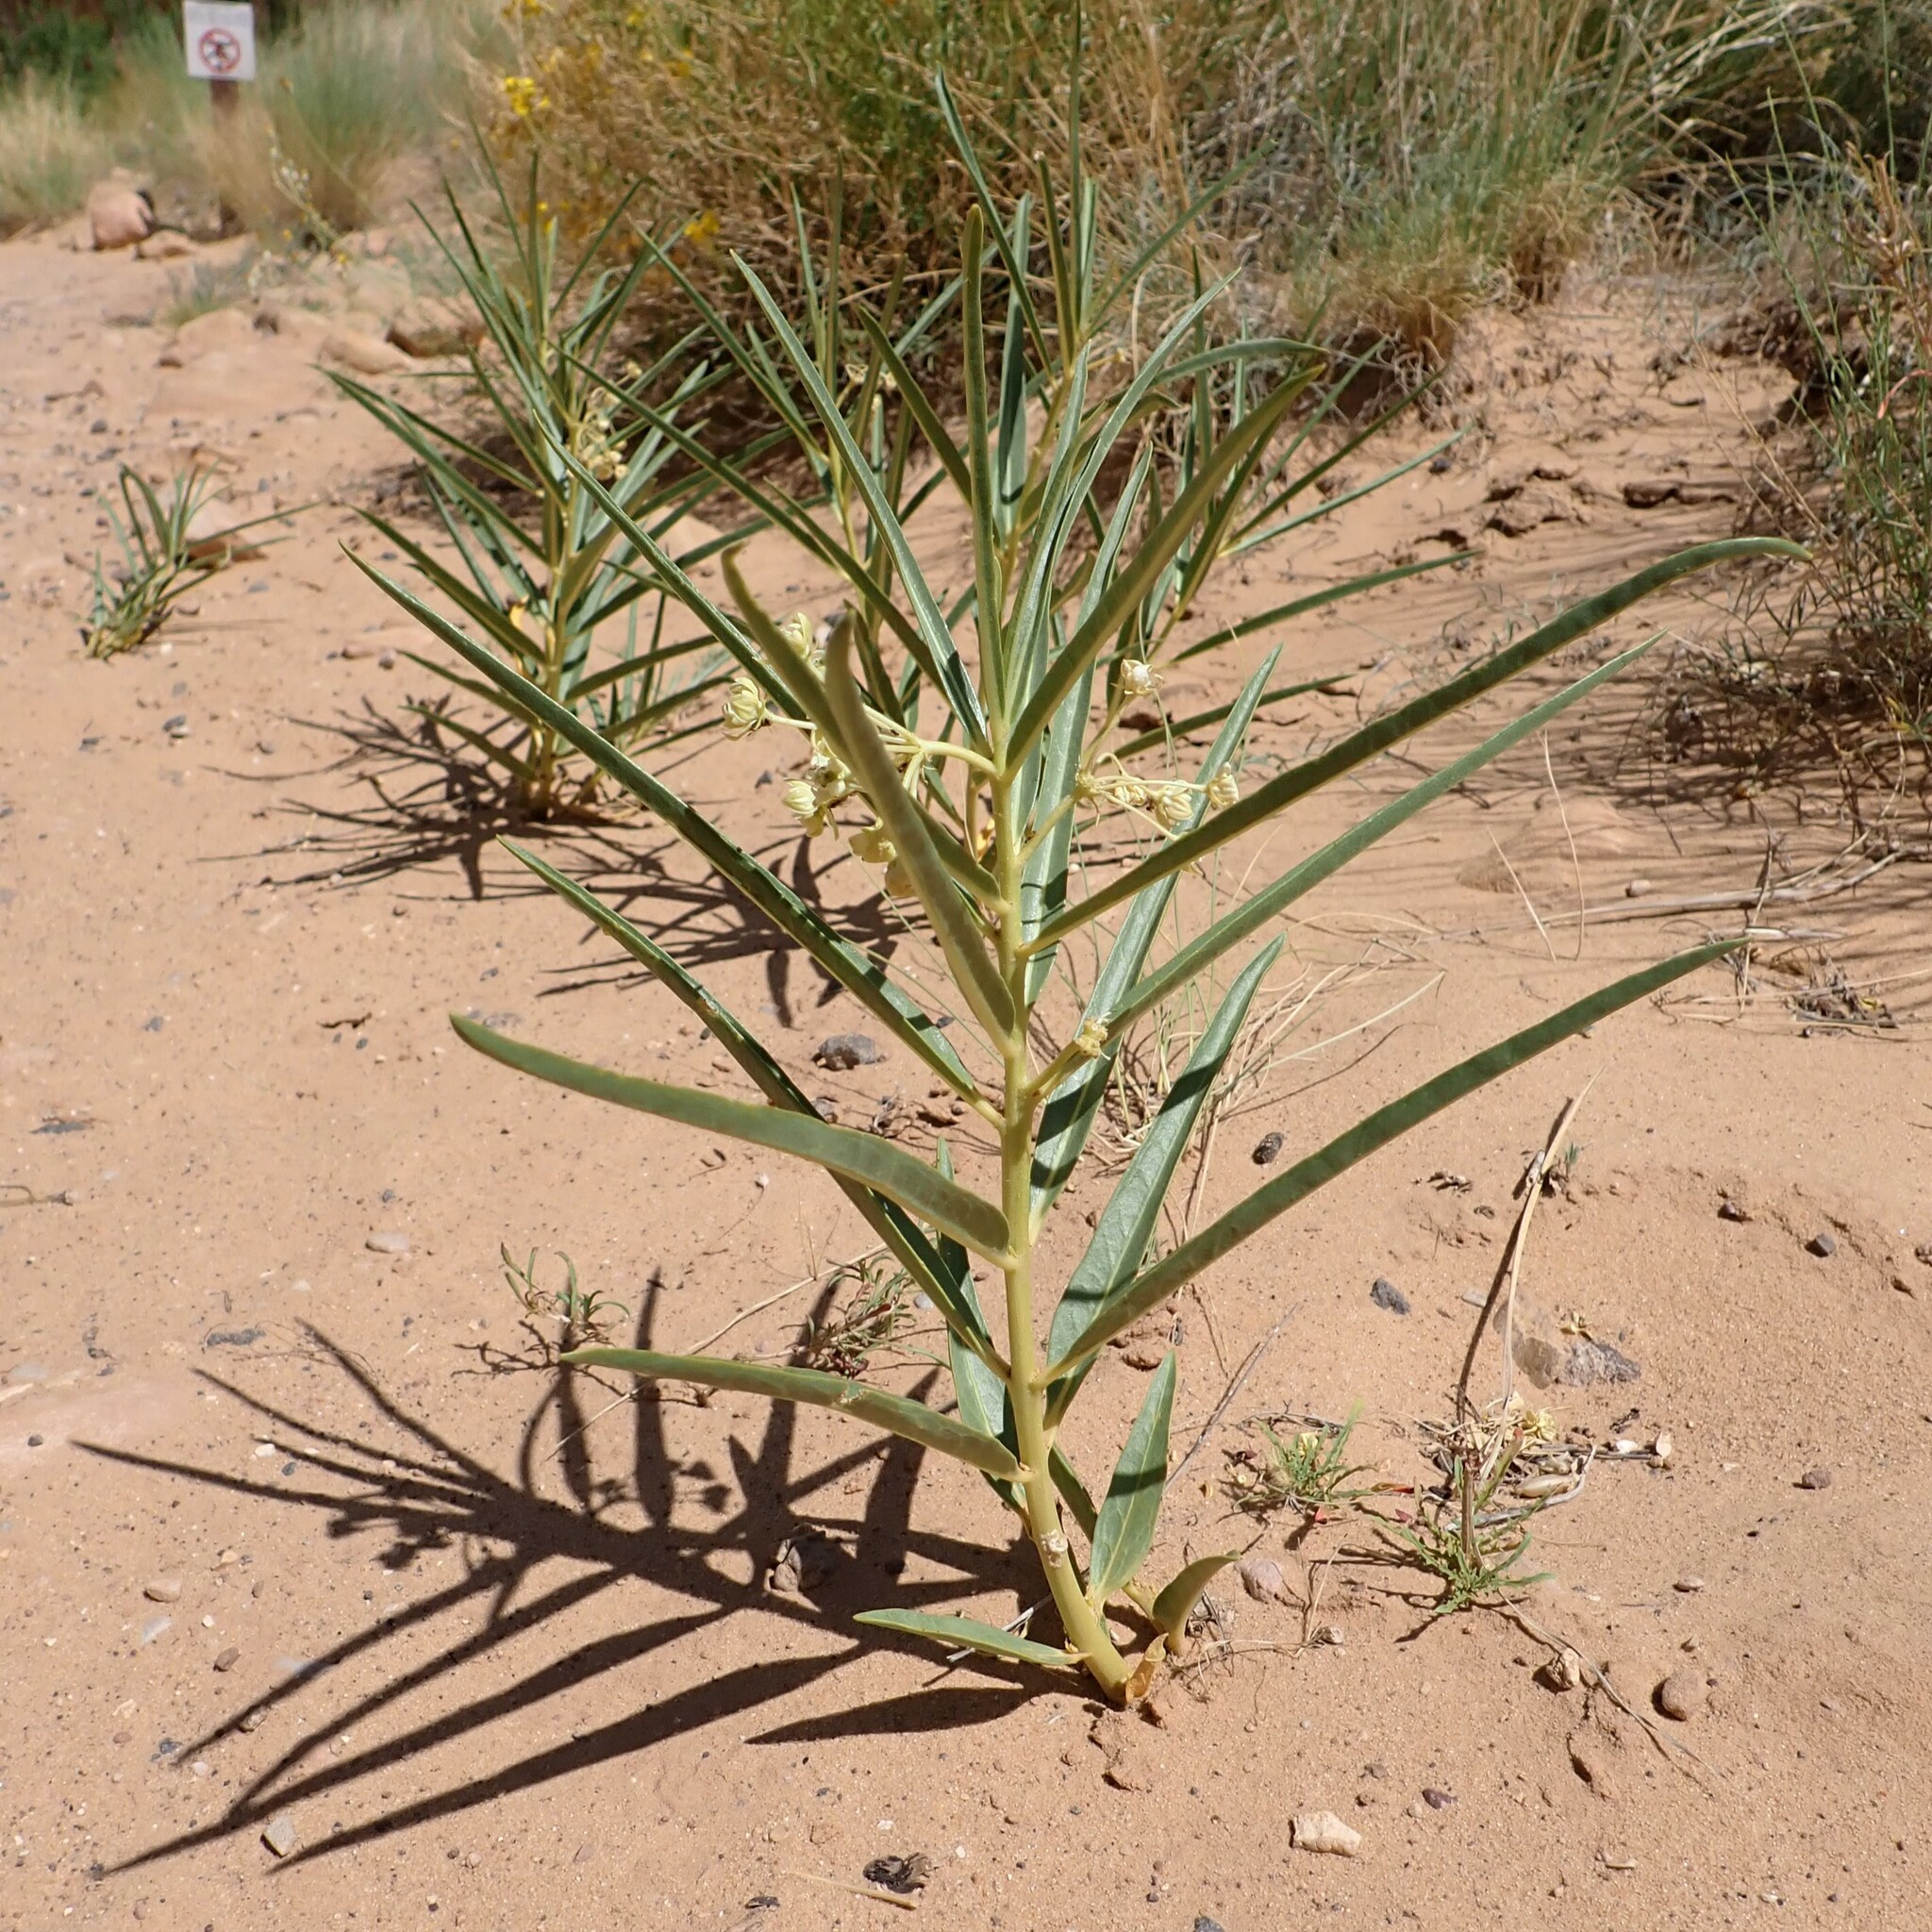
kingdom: Plantae
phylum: Tracheophyta
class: Magnoliopsida
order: Gentianales
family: Apocynaceae
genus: Asclepias
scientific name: Asclepias labriformis
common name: Labriformis milkweed
